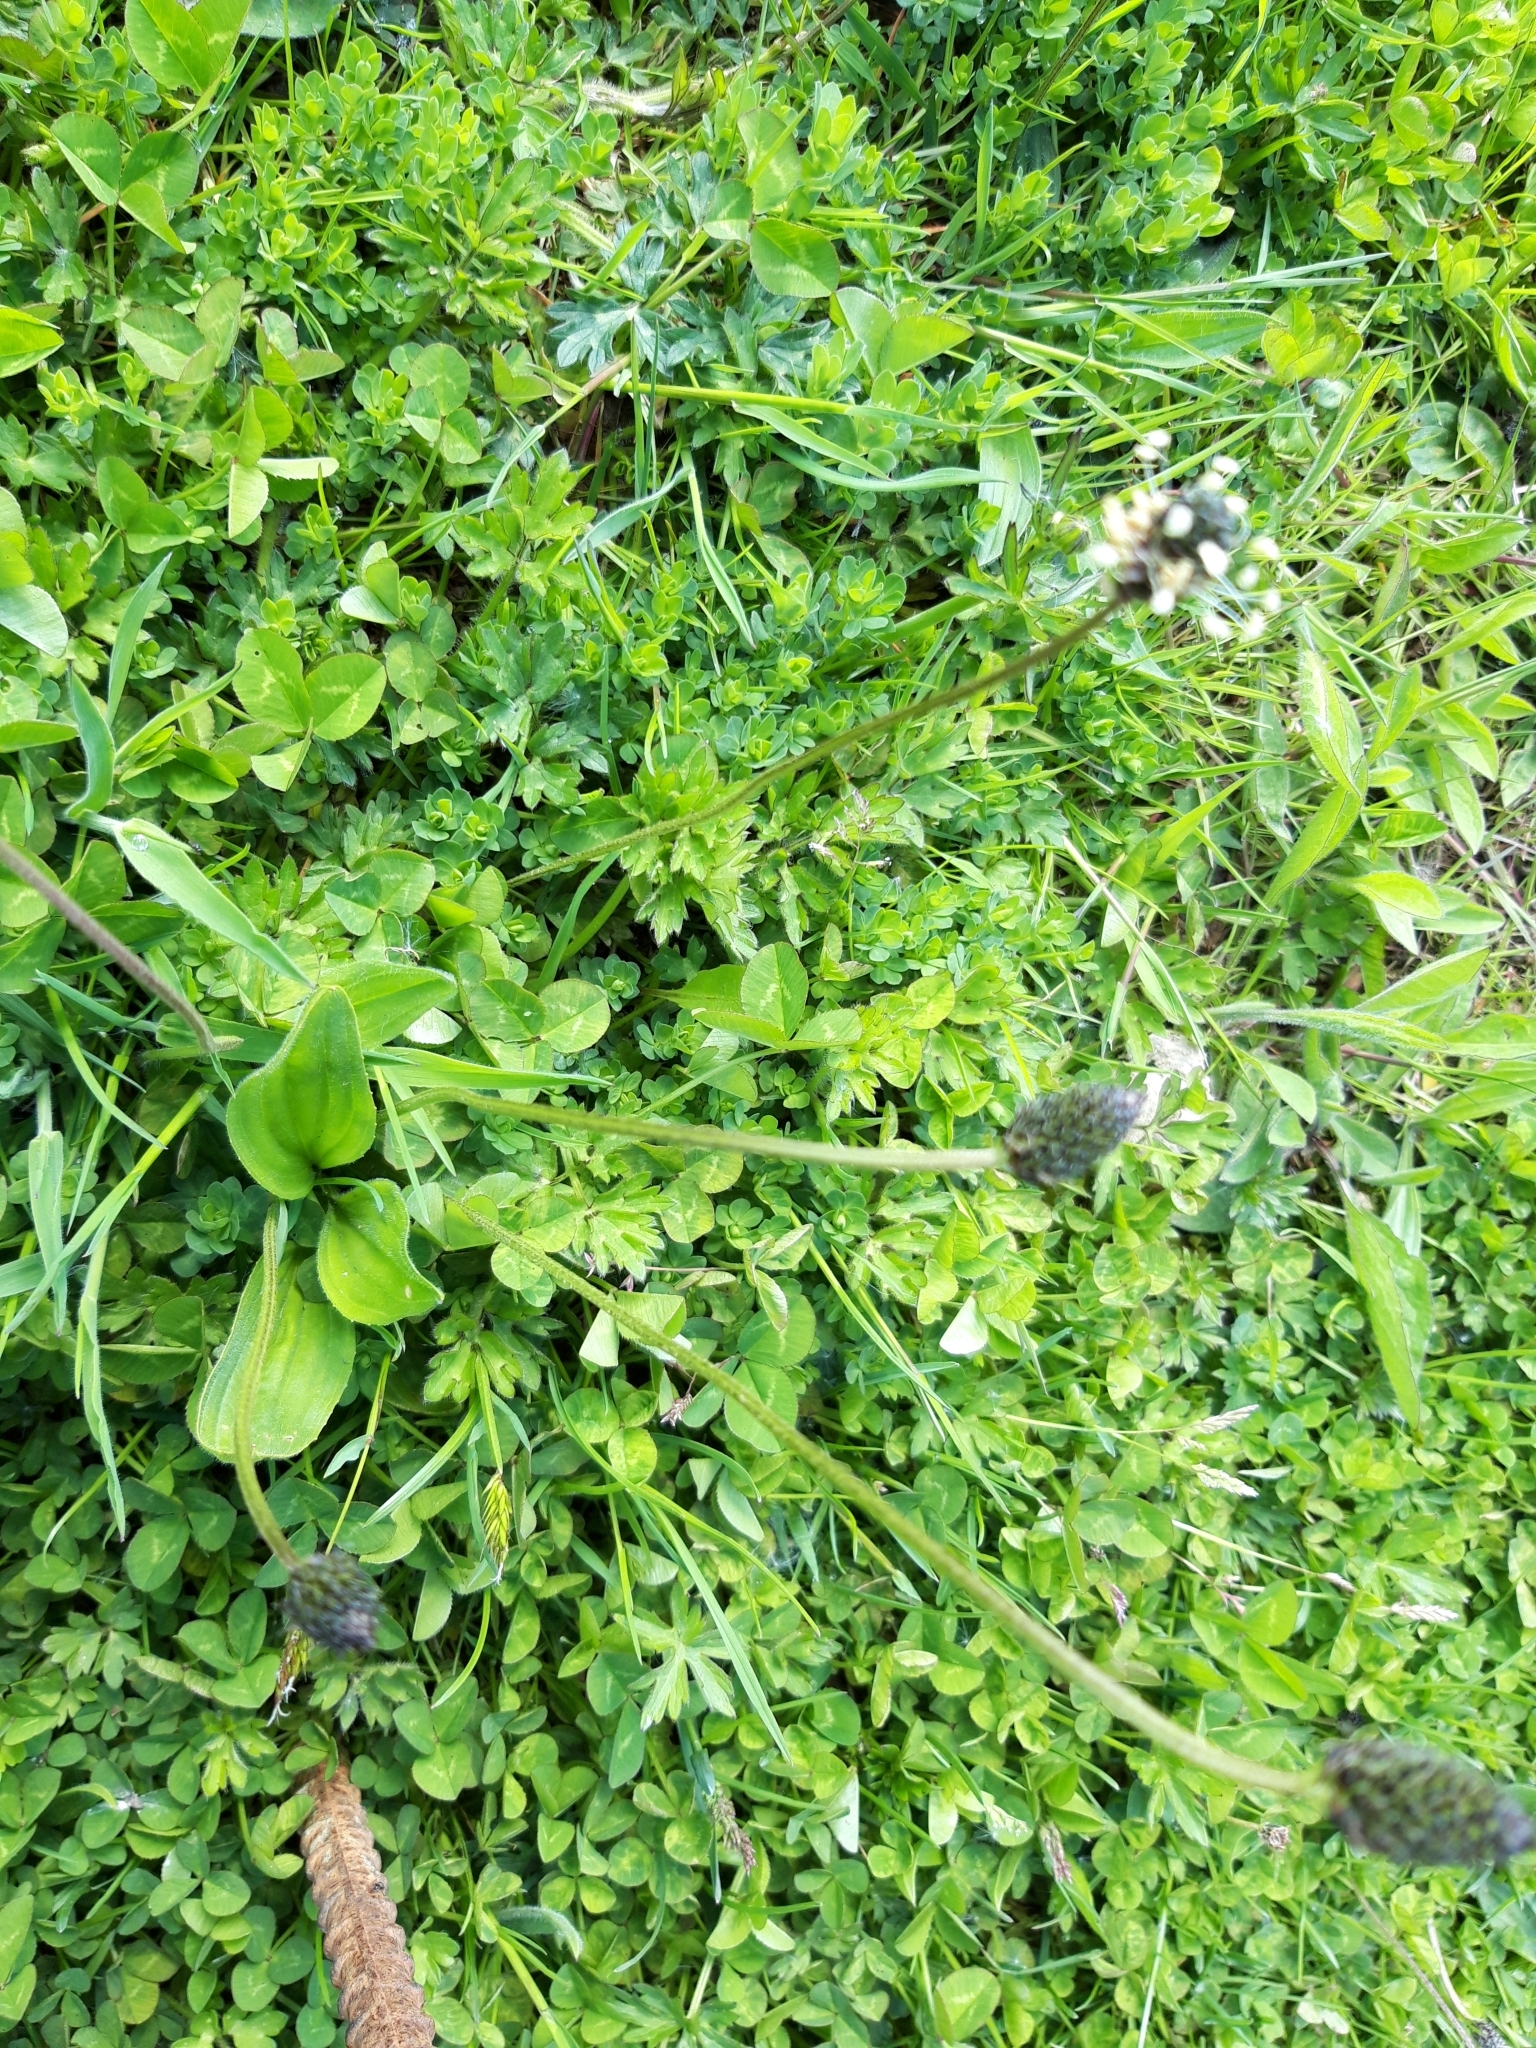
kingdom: Plantae
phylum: Tracheophyta
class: Magnoliopsida
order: Lamiales
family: Plantaginaceae
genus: Plantago
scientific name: Plantago lanceolata
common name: Ribwort plantain
